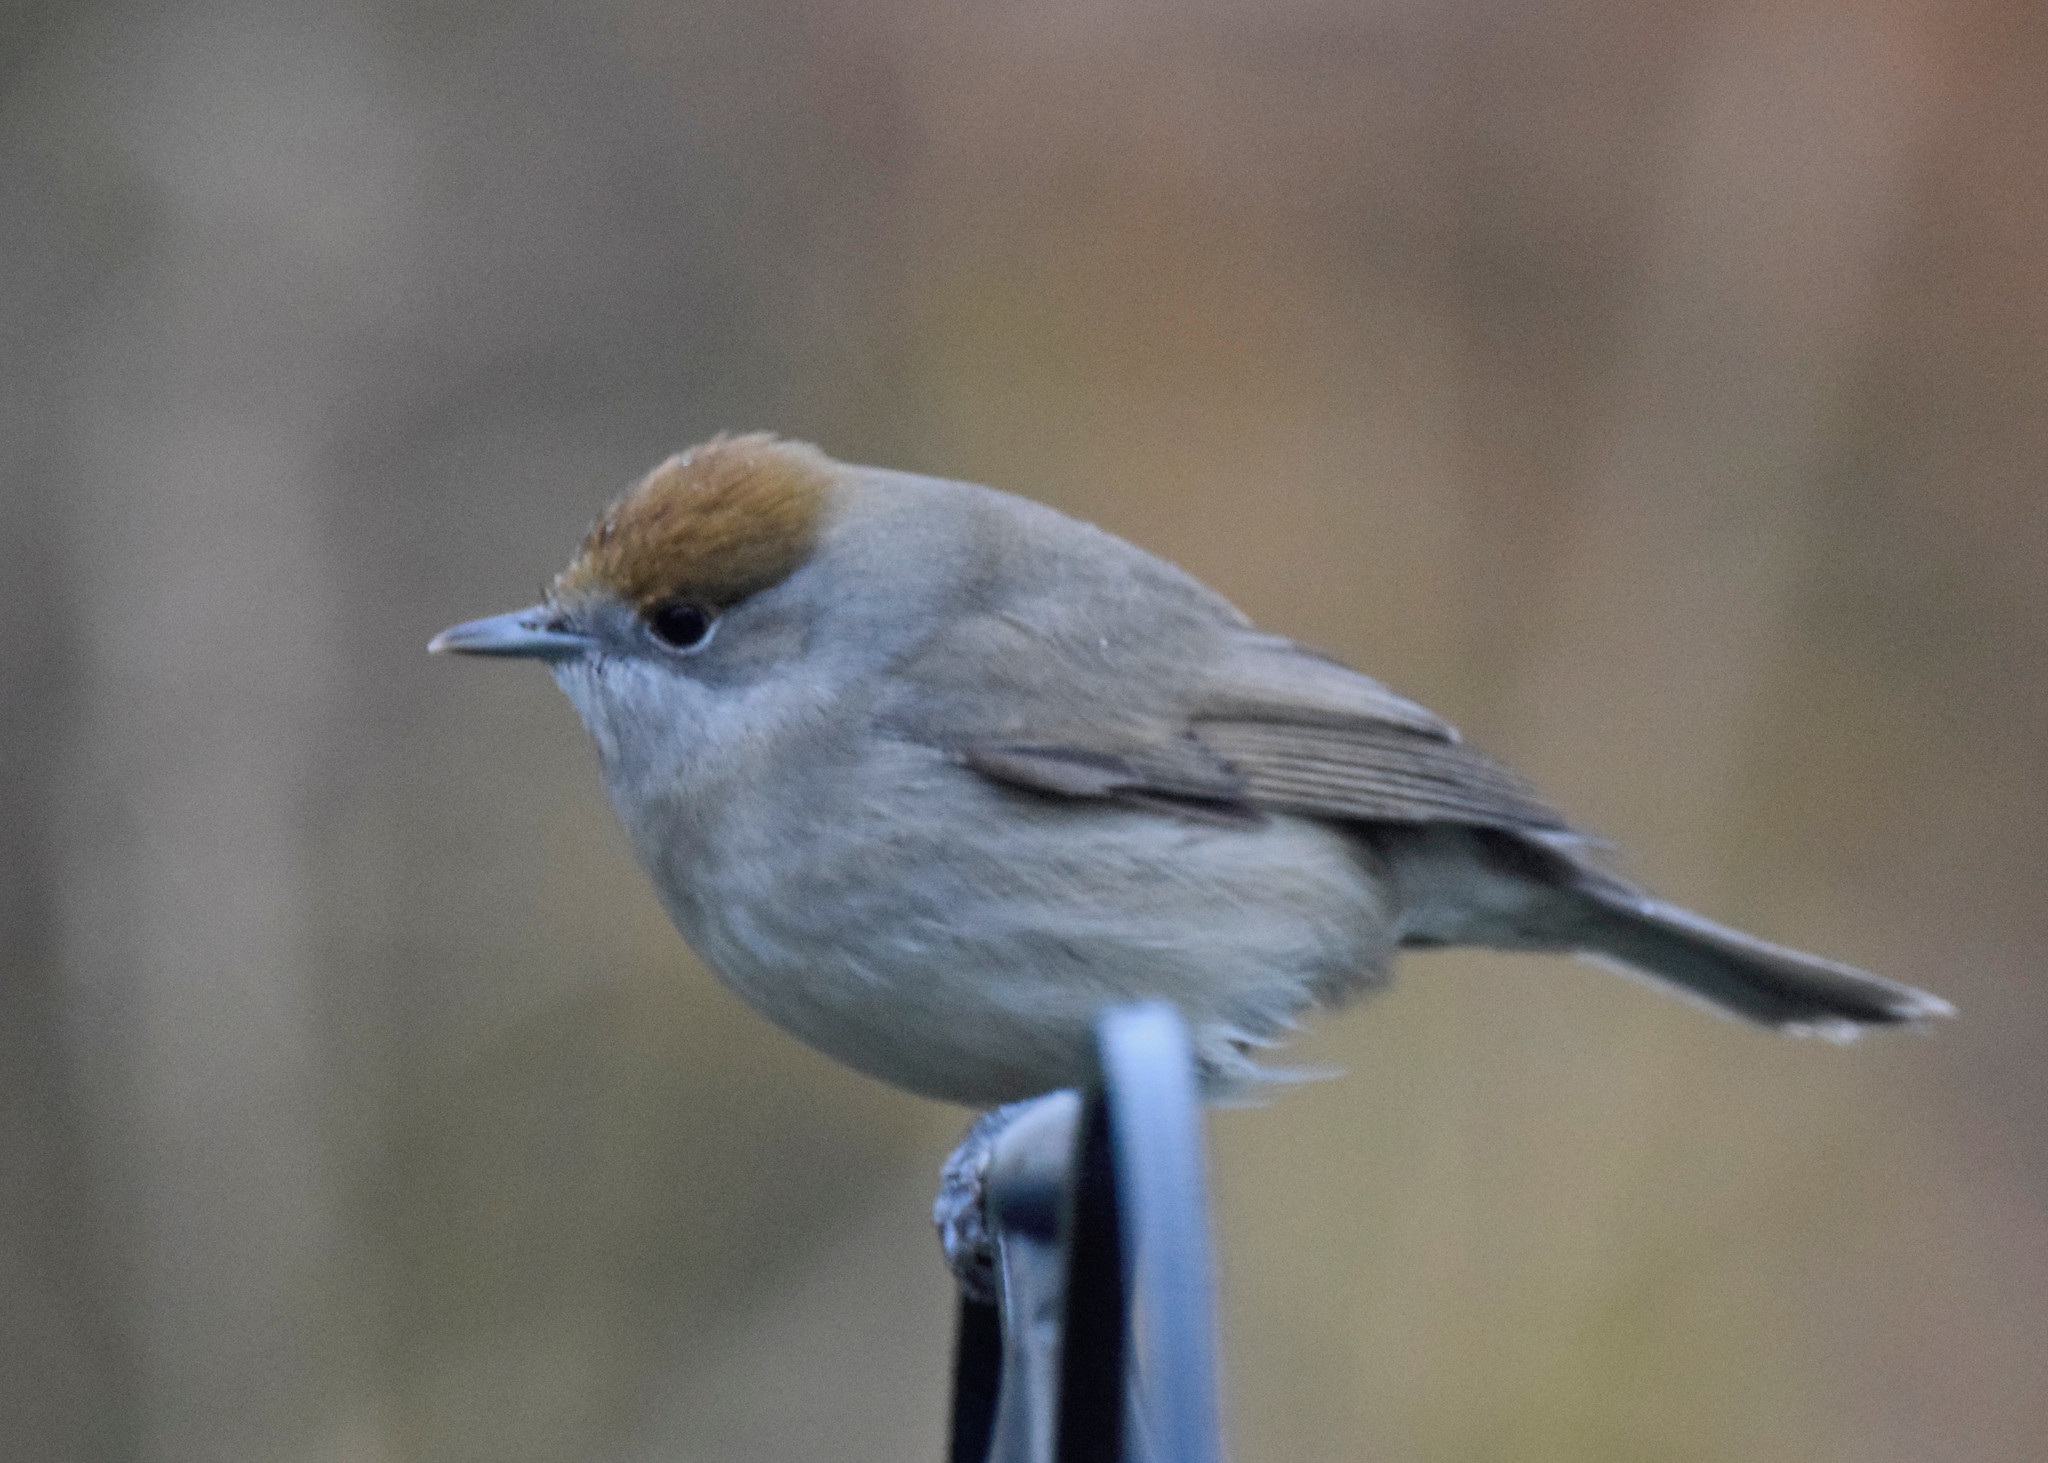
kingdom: Animalia
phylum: Chordata
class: Aves
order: Passeriformes
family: Sylviidae
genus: Sylvia
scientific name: Sylvia atricapilla
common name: Eurasian blackcap
